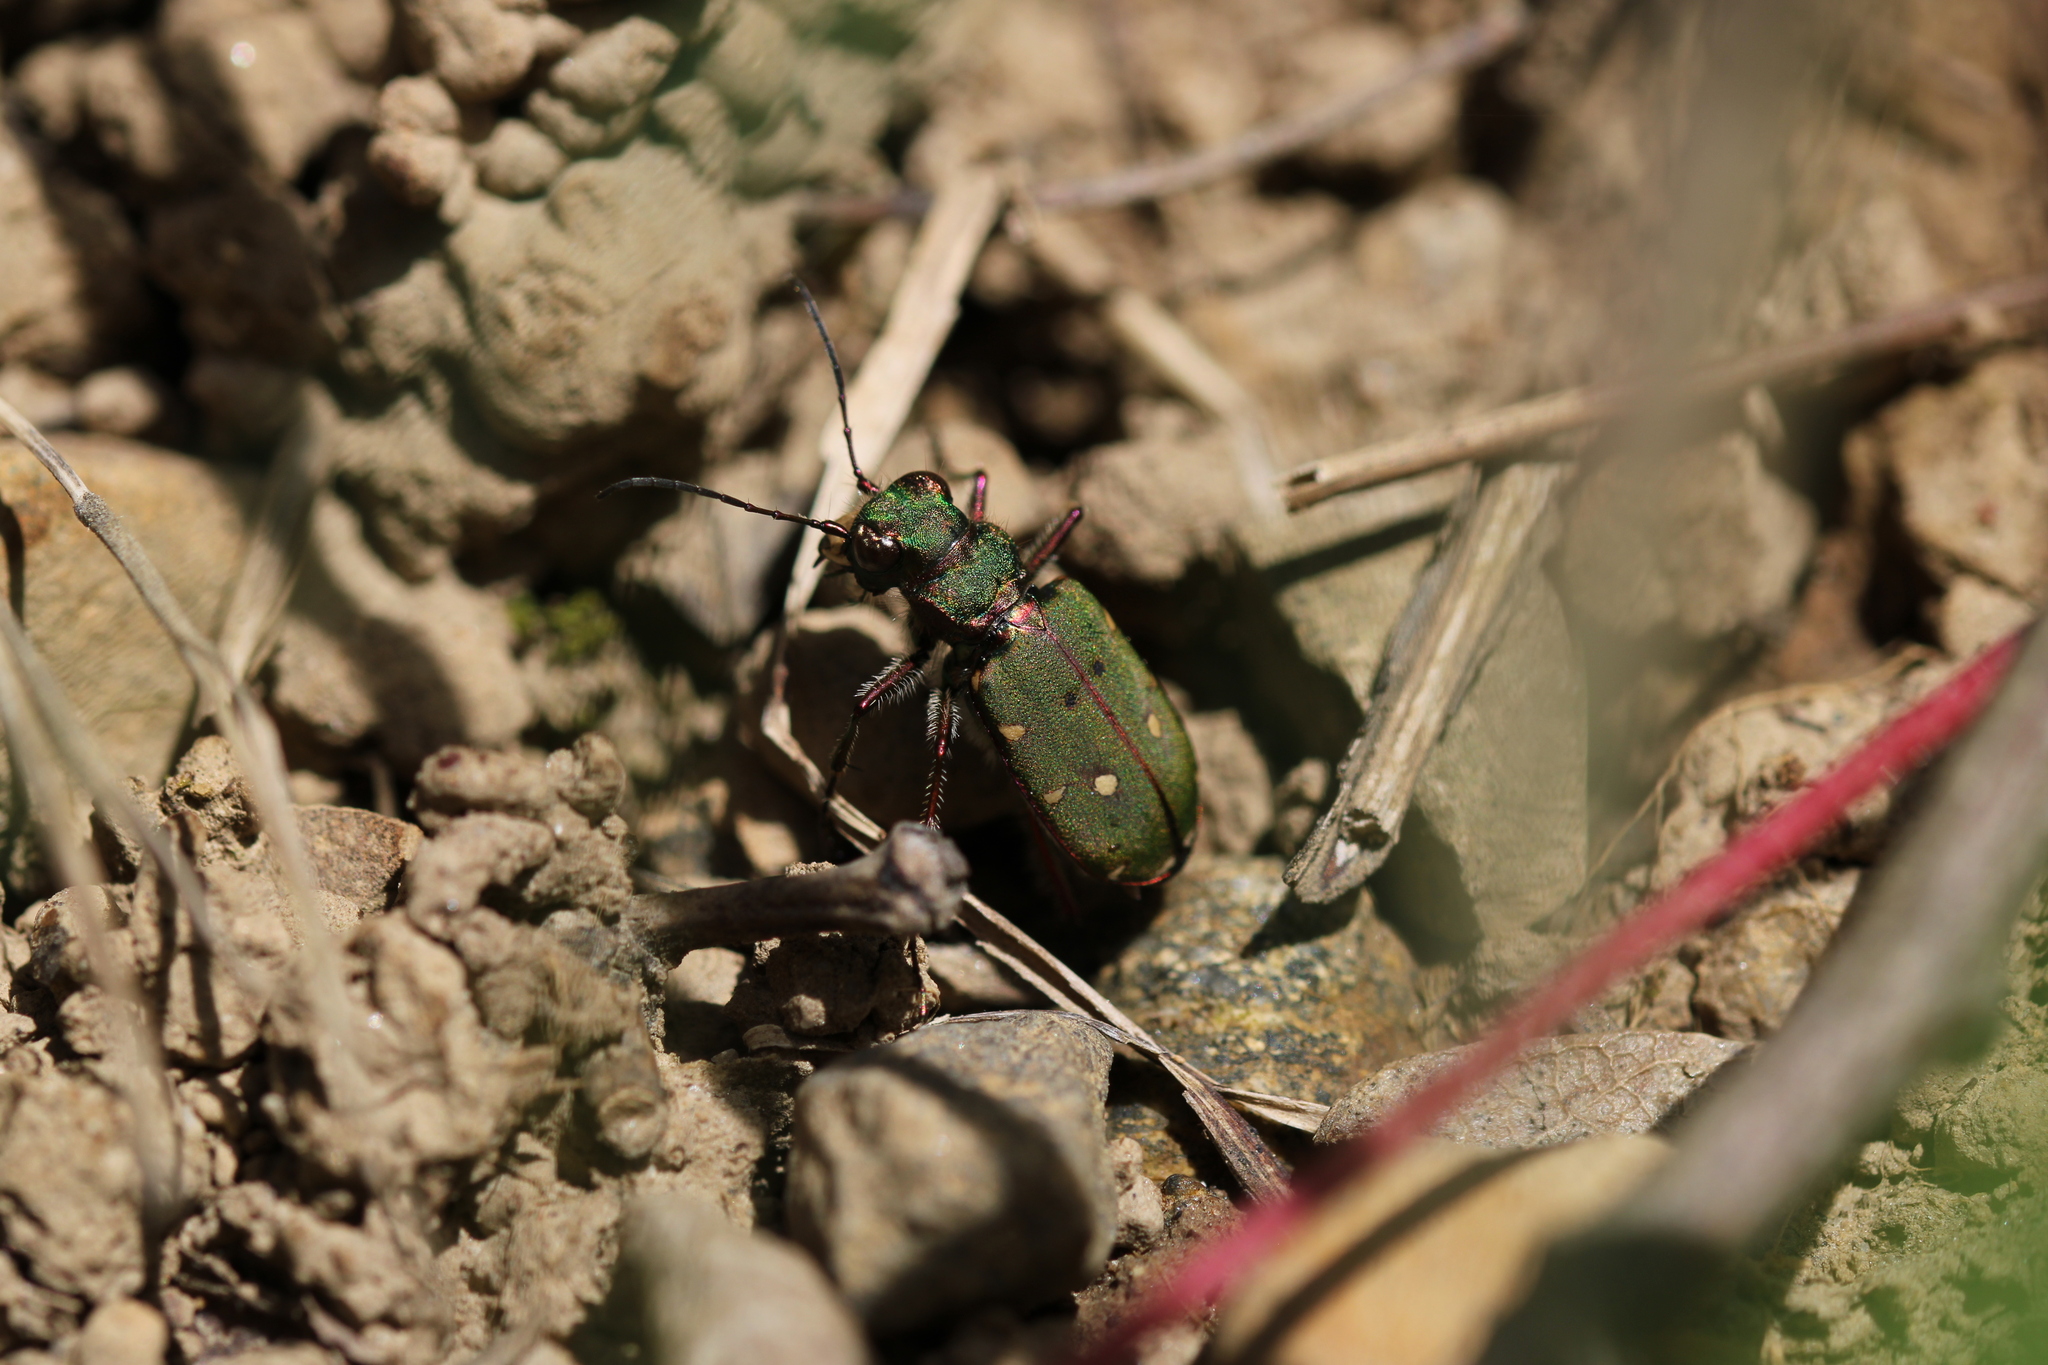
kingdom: Animalia
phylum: Arthropoda
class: Insecta
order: Coleoptera
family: Carabidae
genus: Cicindela
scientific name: Cicindela campestris
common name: Common tiger beetle
